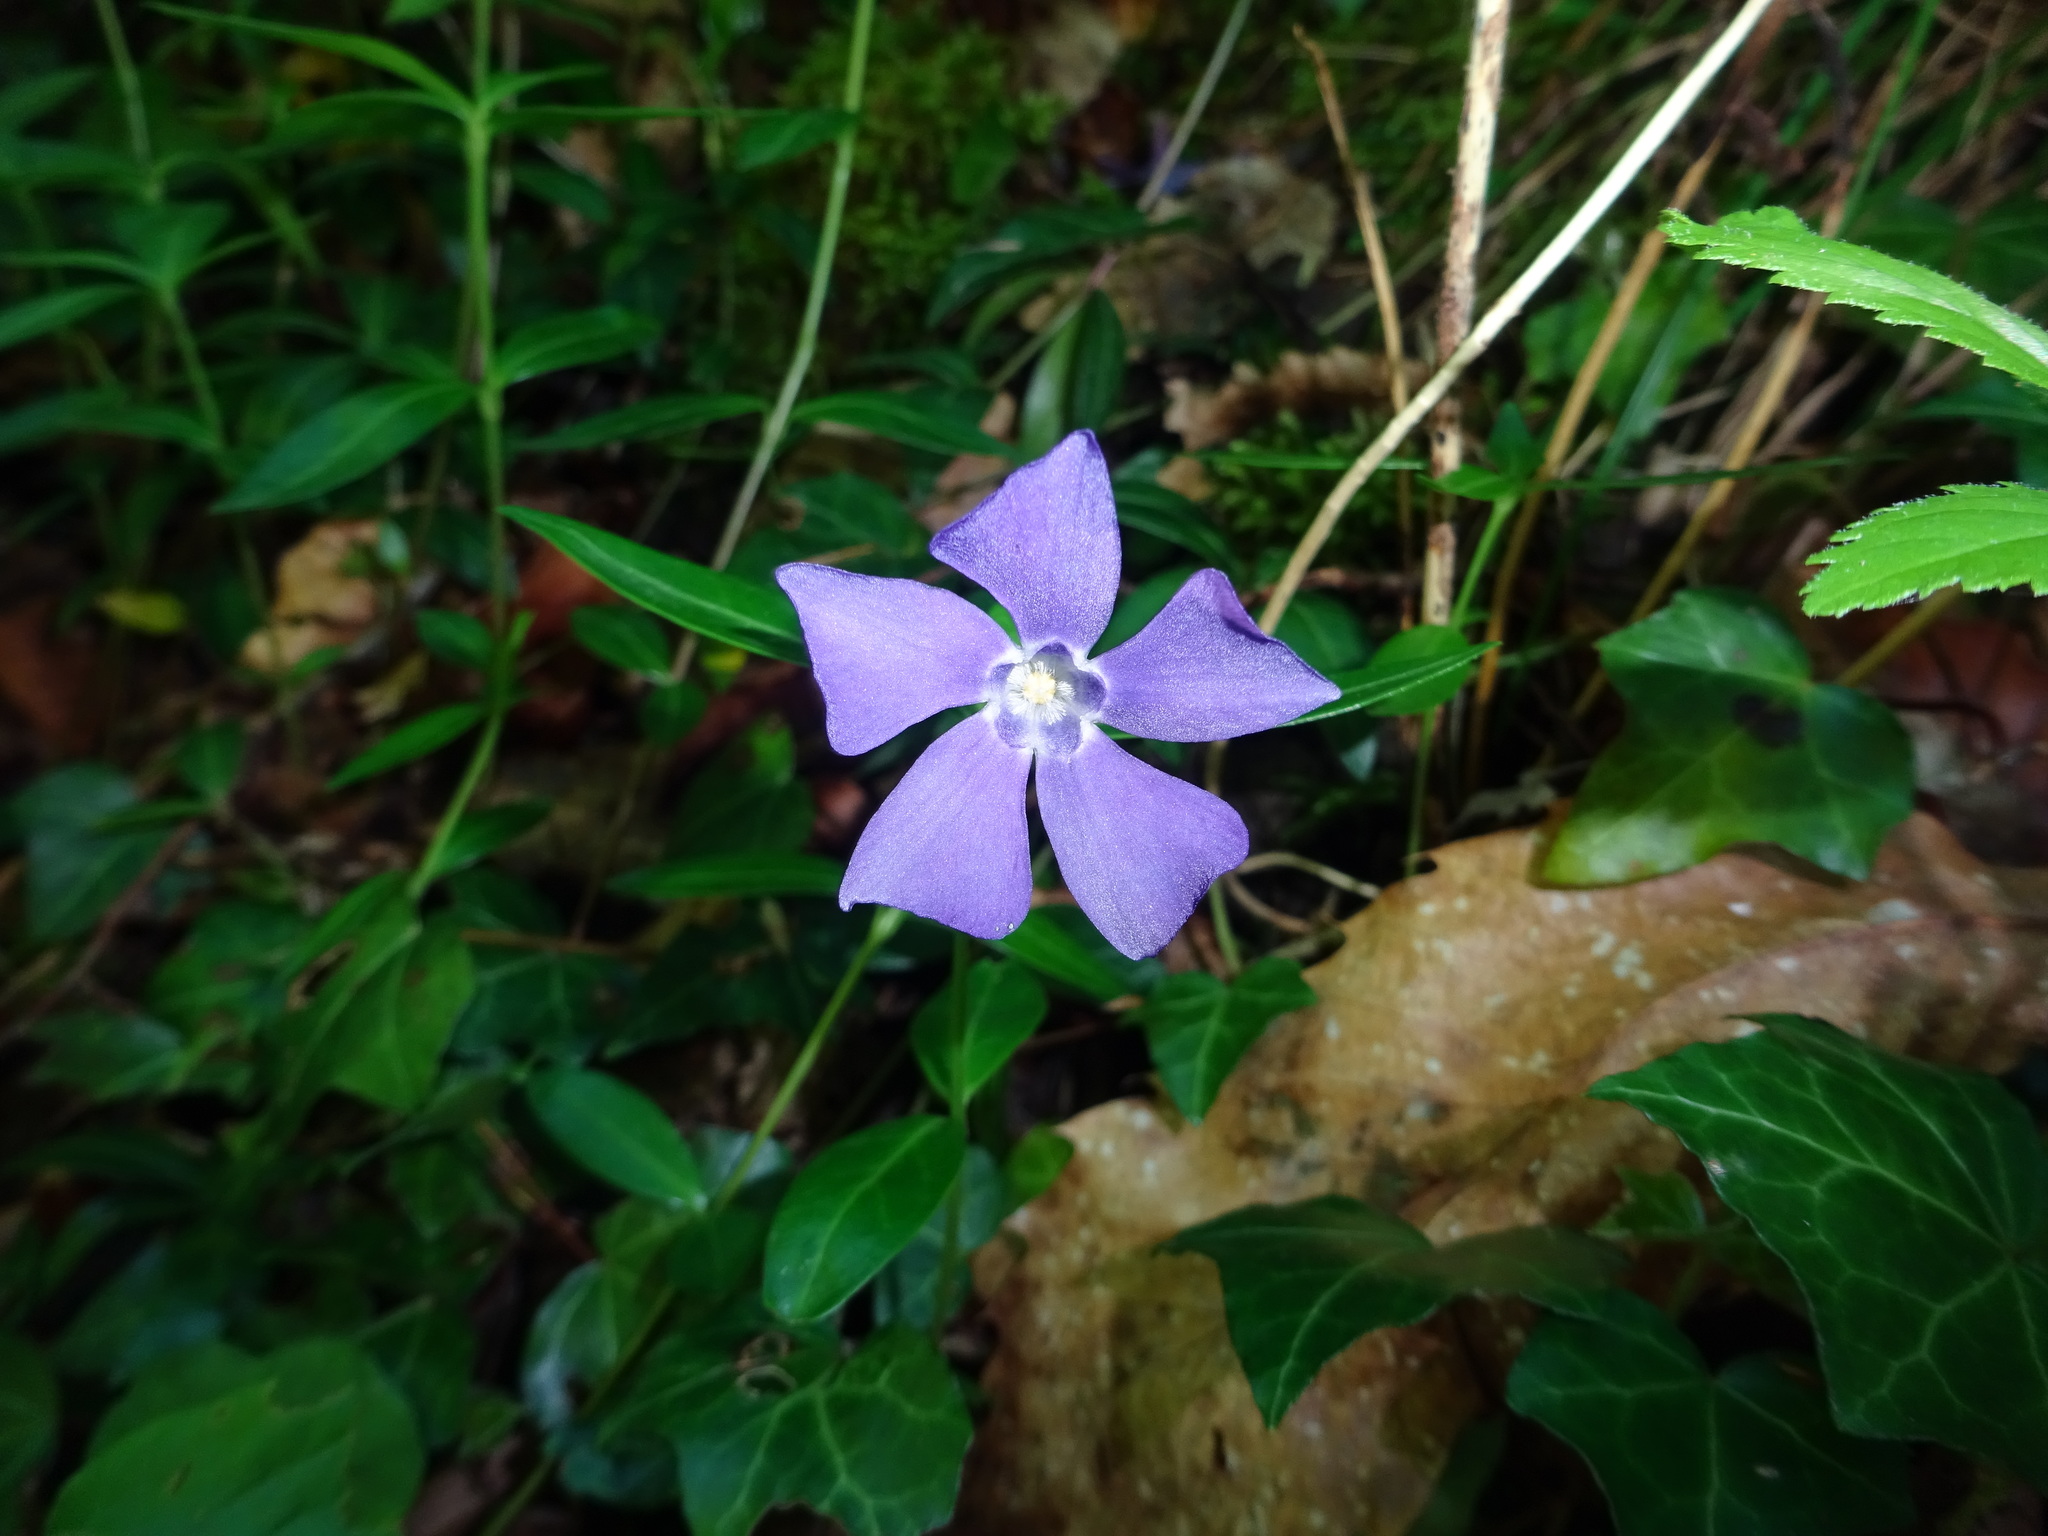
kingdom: Plantae
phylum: Tracheophyta
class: Magnoliopsida
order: Gentianales
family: Apocynaceae
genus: Vinca
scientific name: Vinca minor
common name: Lesser periwinkle
